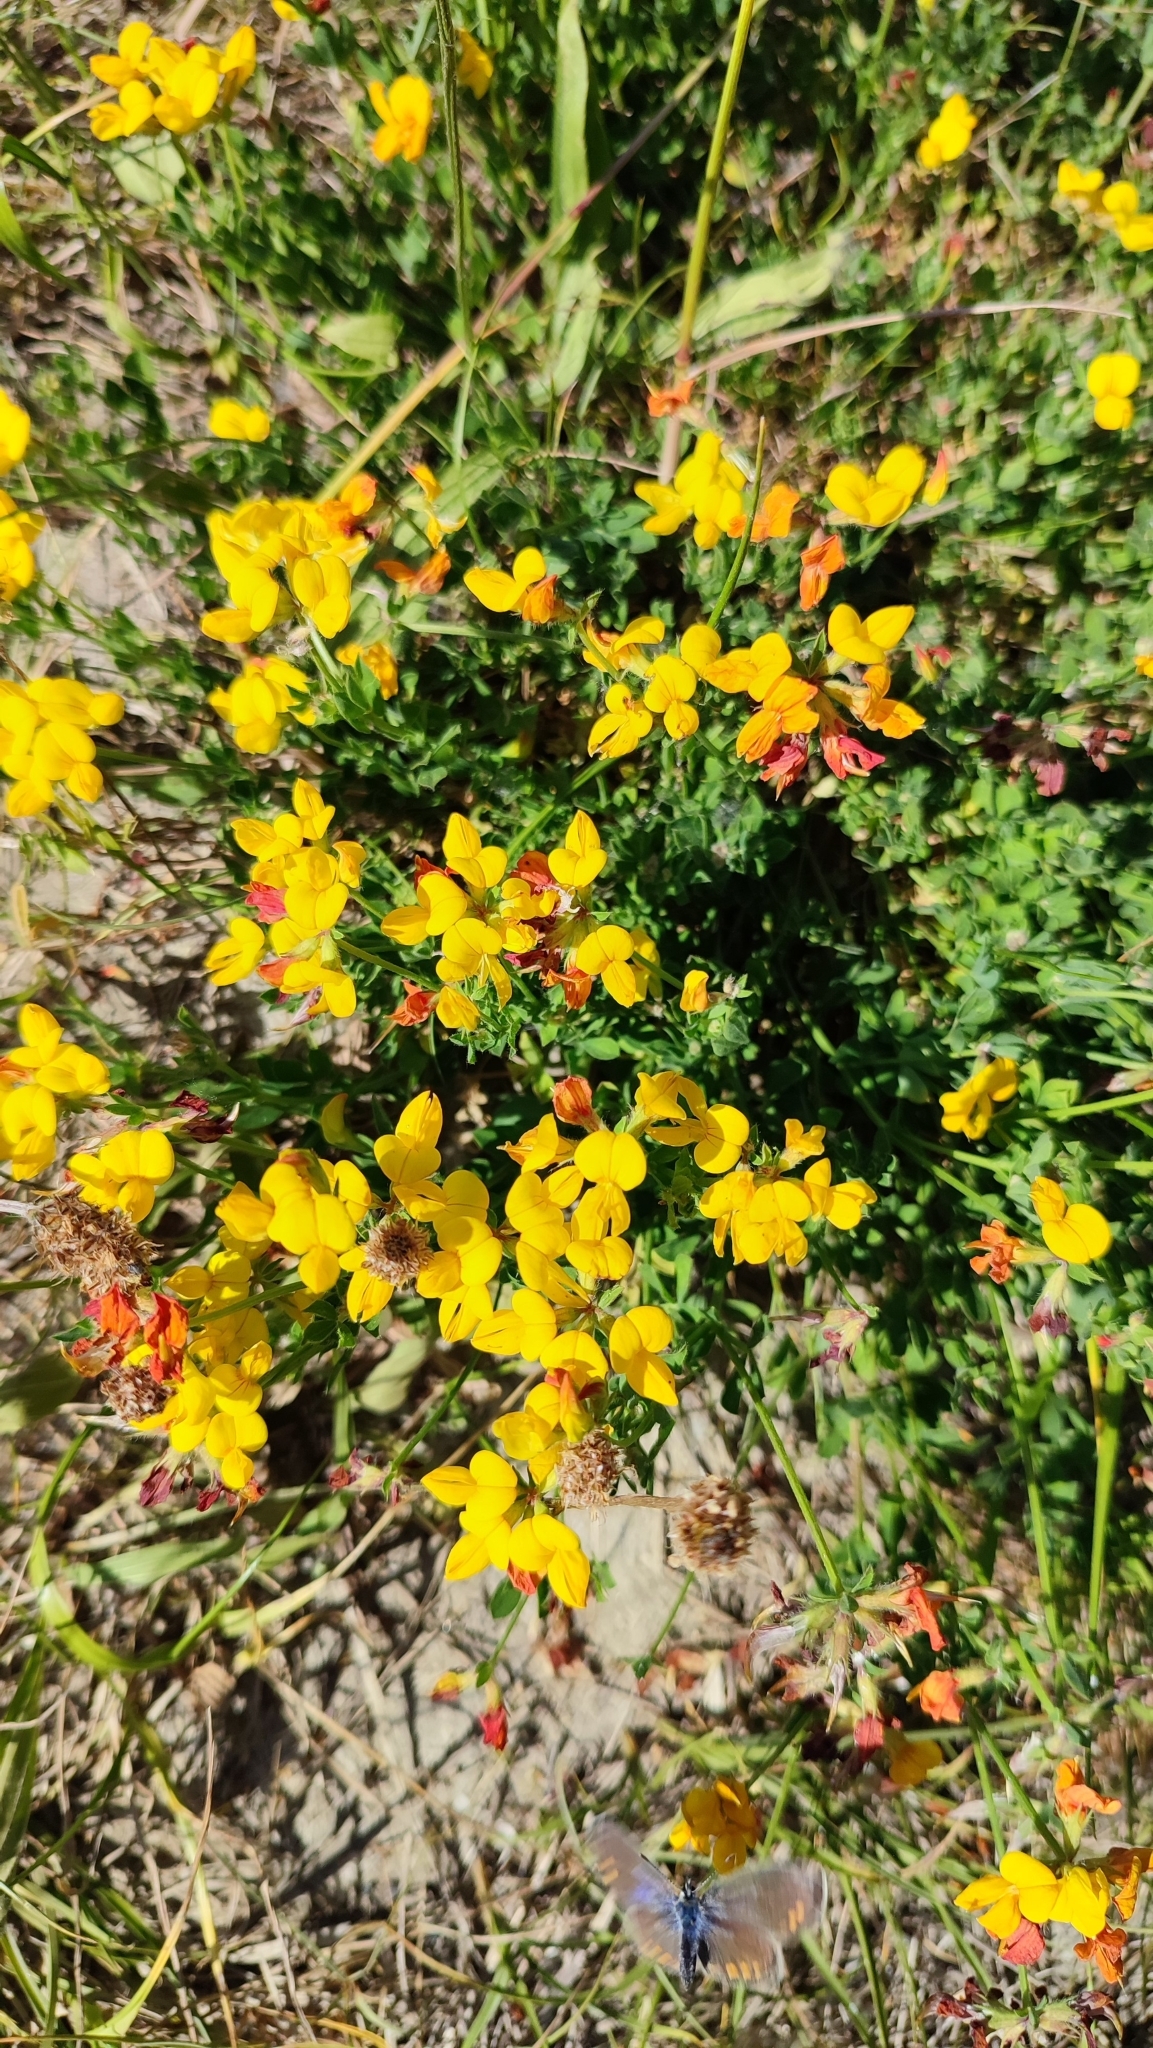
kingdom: Plantae
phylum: Tracheophyta
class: Magnoliopsida
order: Fabales
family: Fabaceae
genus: Lotus
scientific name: Lotus corniculatus
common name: Common bird's-foot-trefoil
